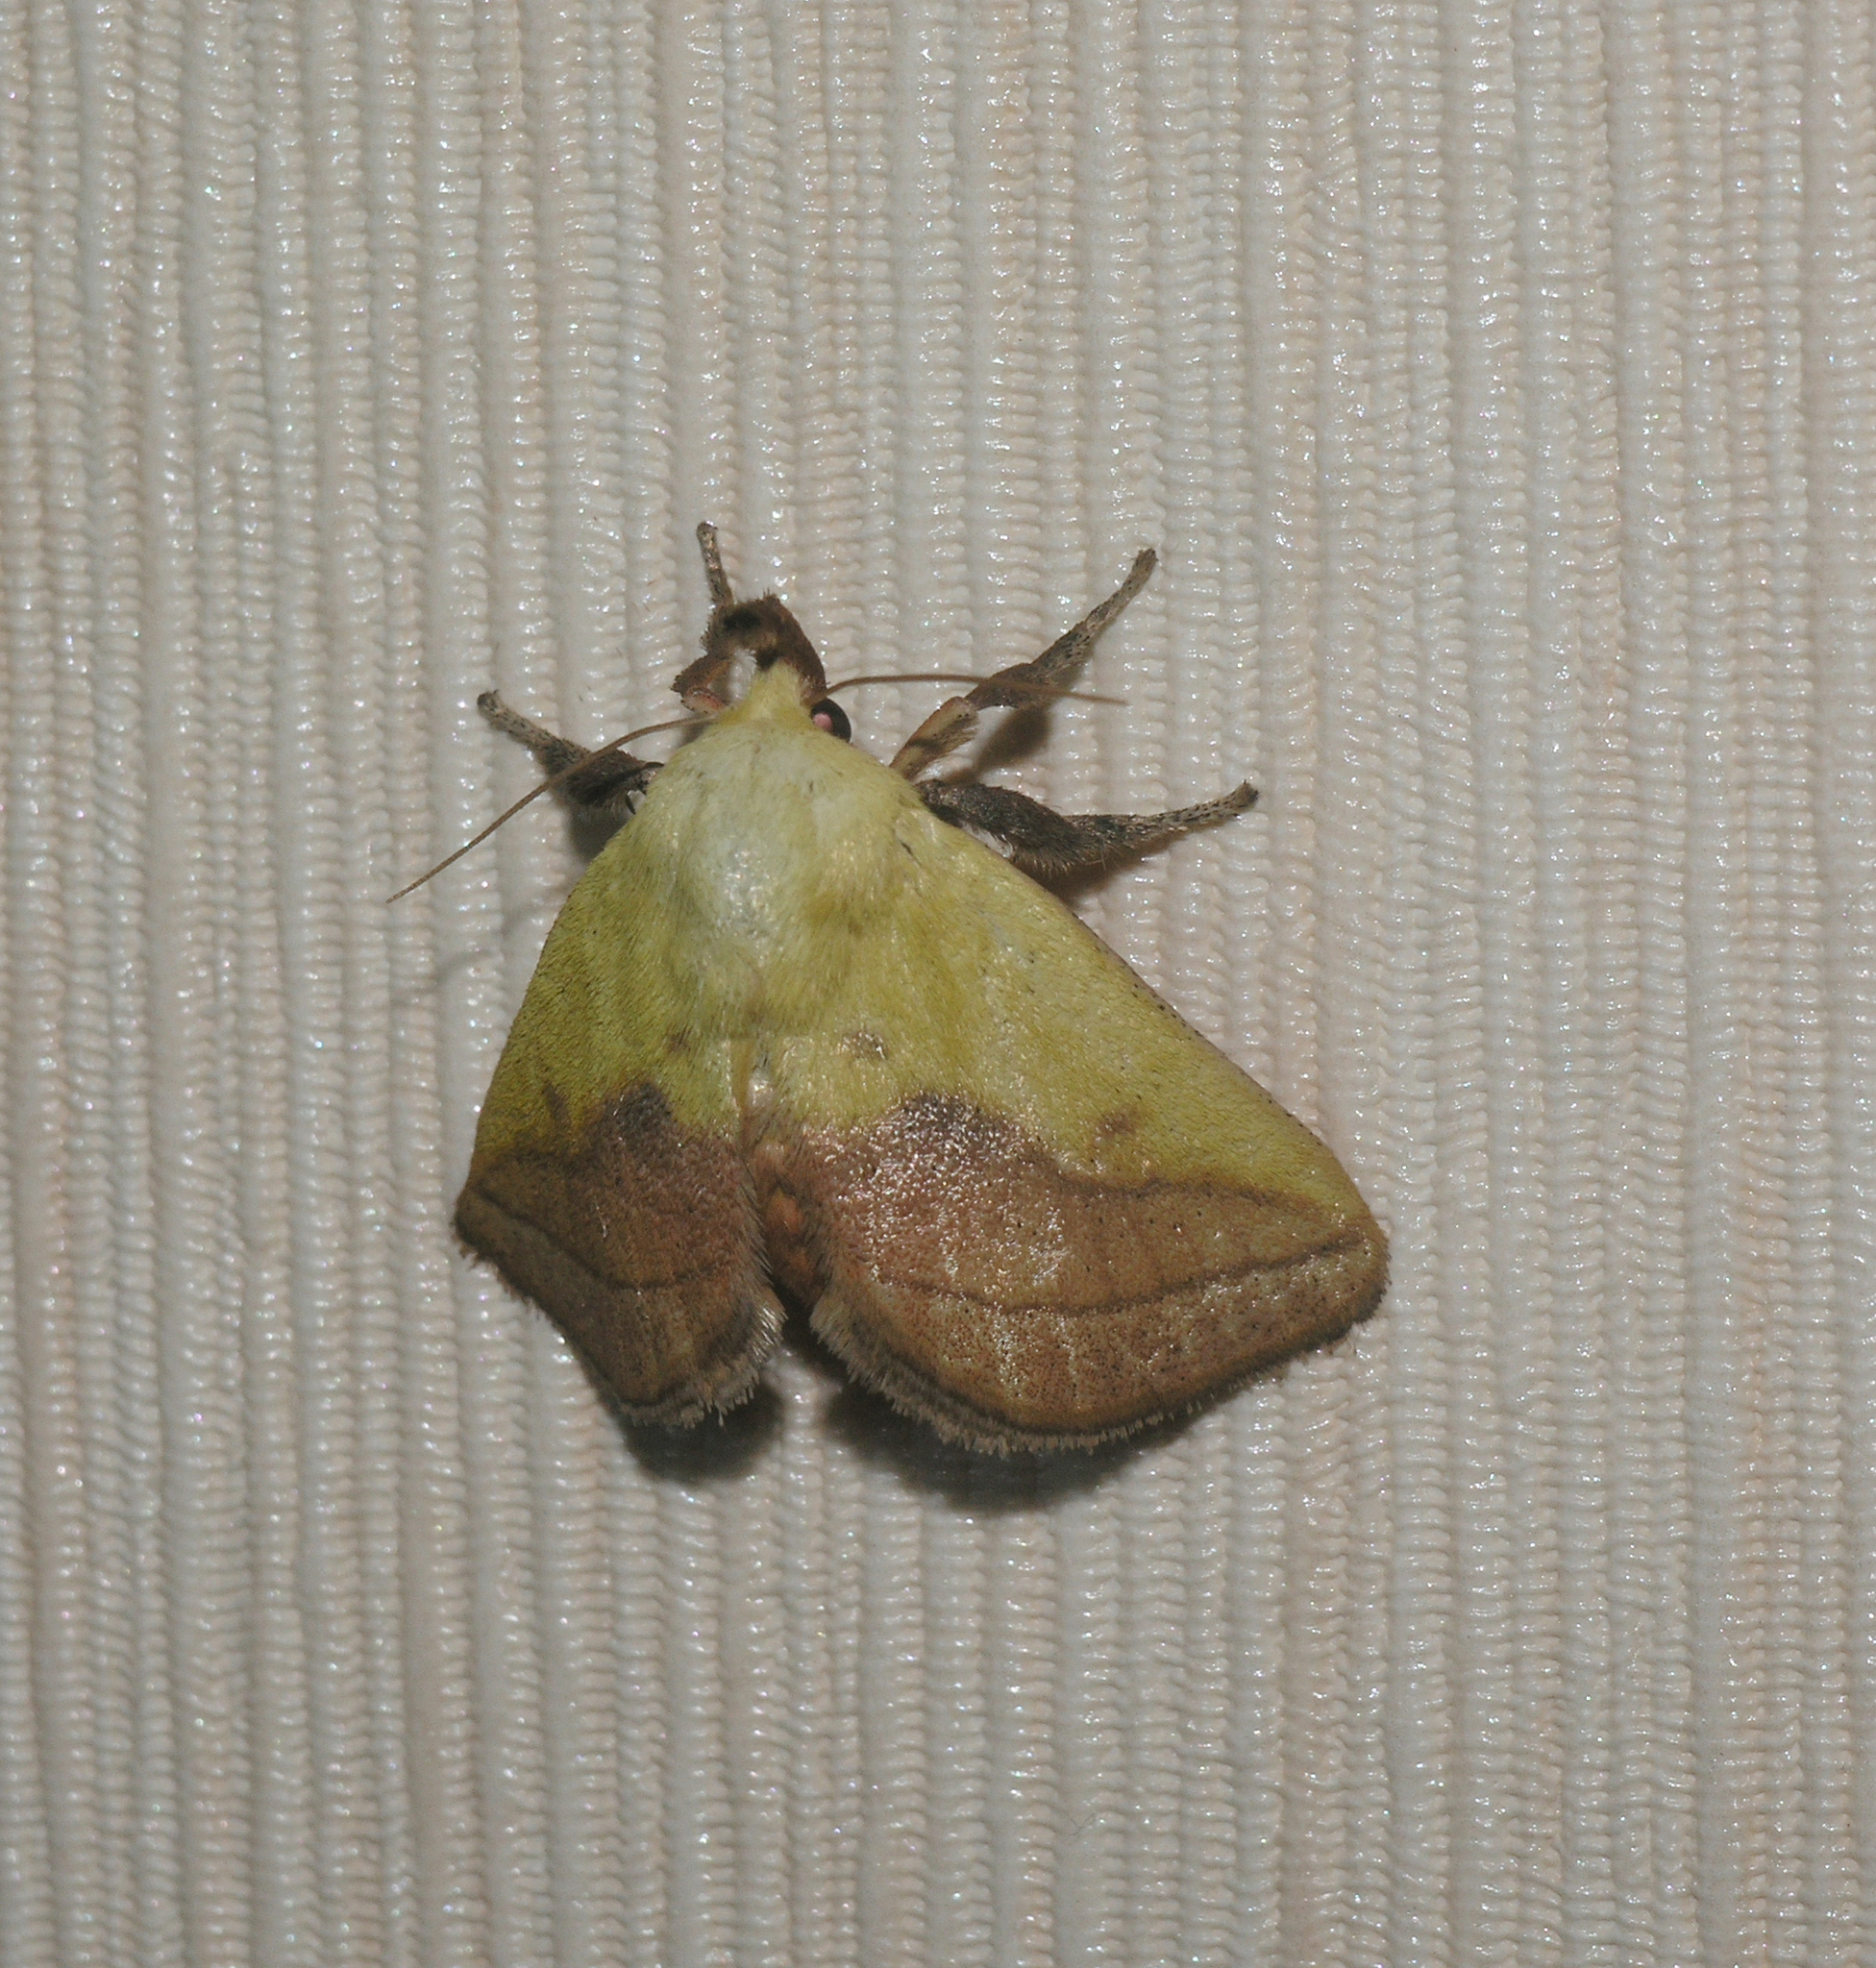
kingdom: Animalia
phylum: Arthropoda
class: Insecta
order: Lepidoptera
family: Limacodidae
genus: Monema
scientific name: Monema flavescens
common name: Oriental moth
